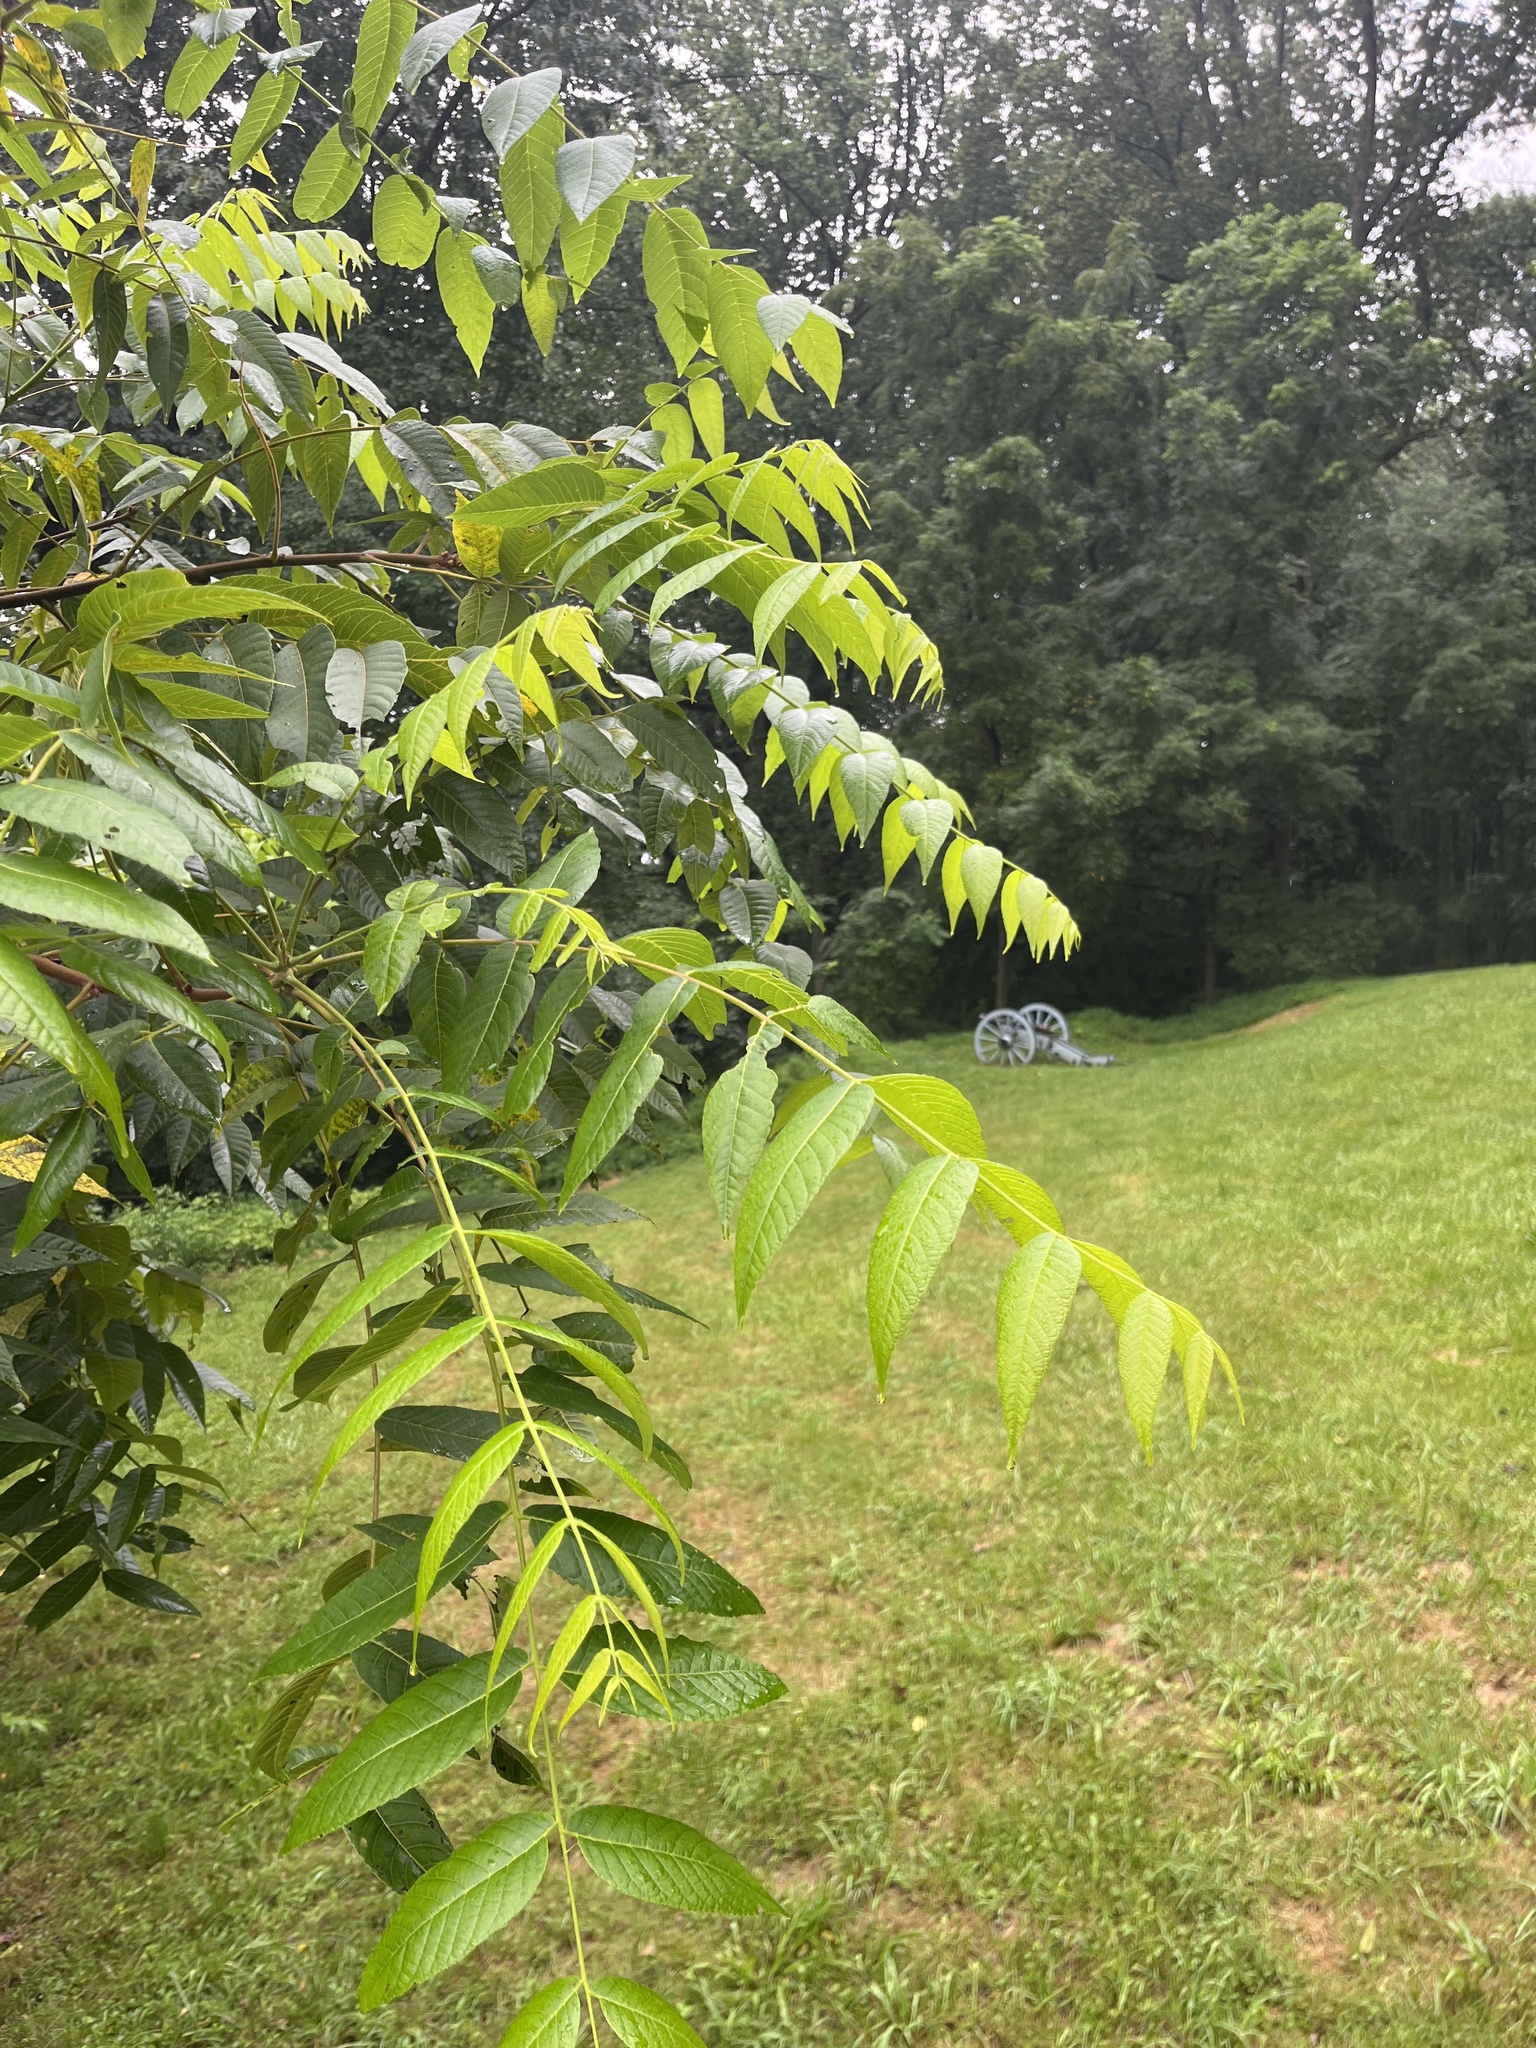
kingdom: Plantae
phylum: Tracheophyta
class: Magnoliopsida
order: Fagales
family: Juglandaceae
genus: Juglans
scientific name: Juglans nigra
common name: Black walnut
